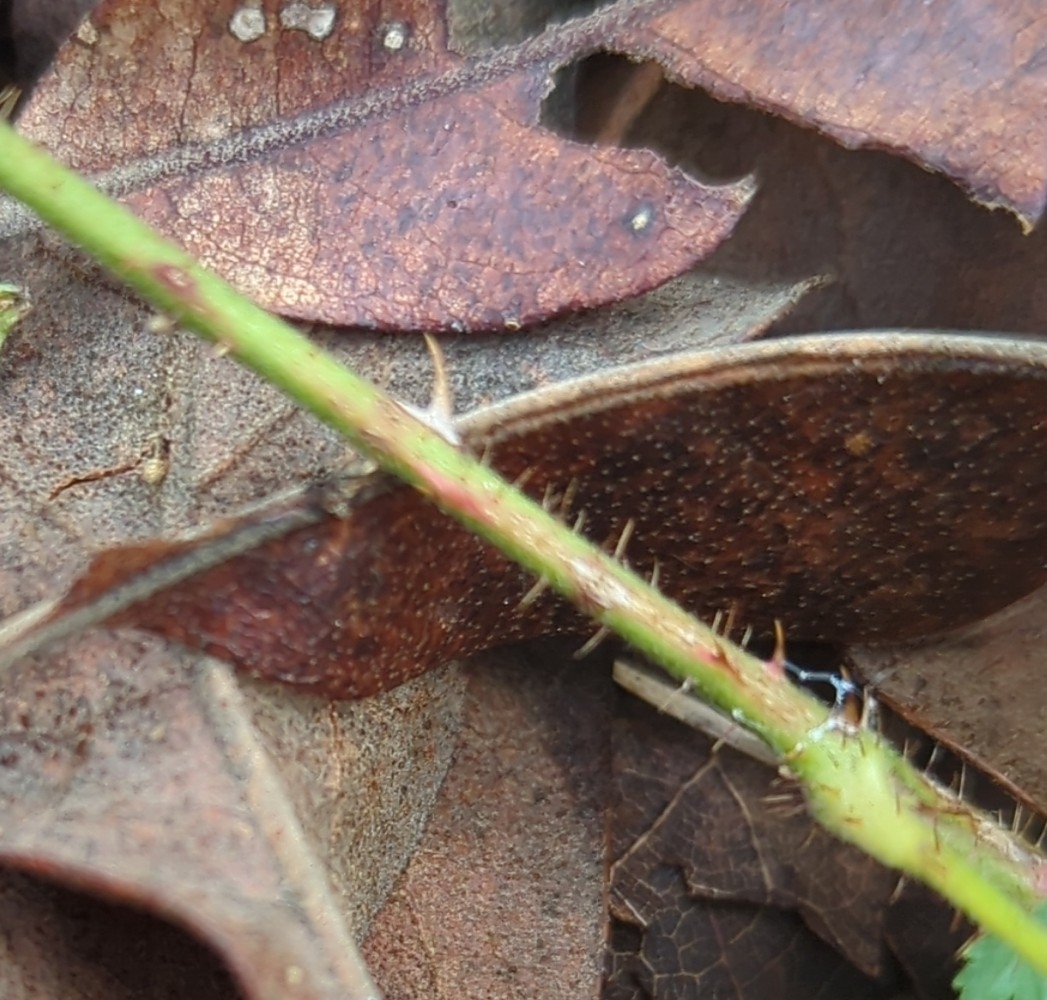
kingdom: Plantae
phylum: Tracheophyta
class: Magnoliopsida
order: Rosales
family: Rosaceae
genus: Rubus
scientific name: Rubus trivialis
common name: Southern dewberry
